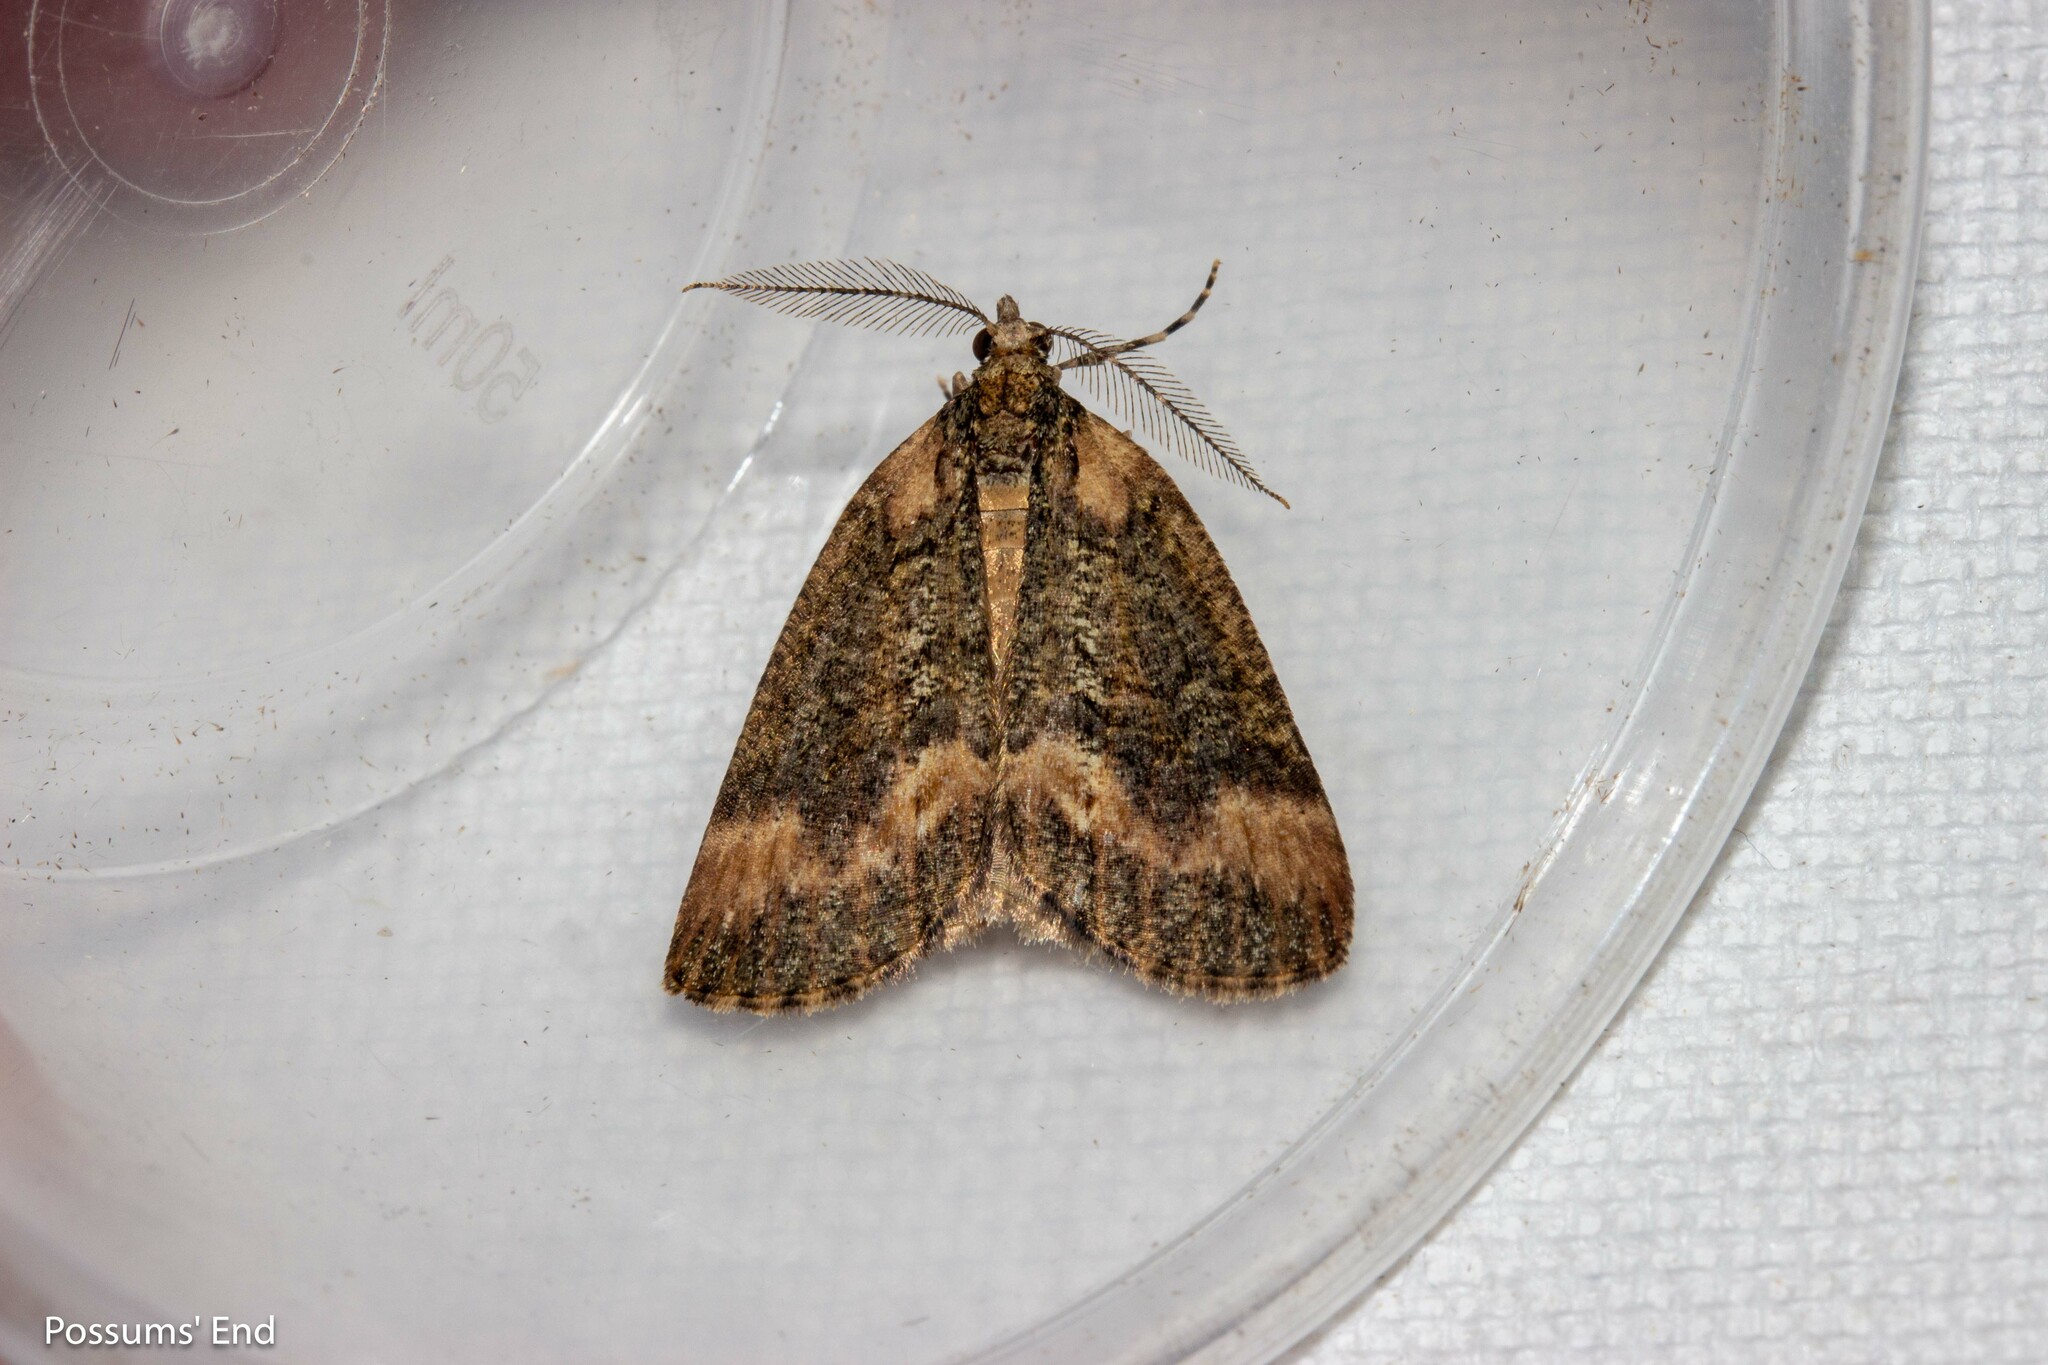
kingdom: Animalia
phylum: Arthropoda
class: Insecta
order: Lepidoptera
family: Geometridae
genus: Chalastra
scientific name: Chalastra ochrea
